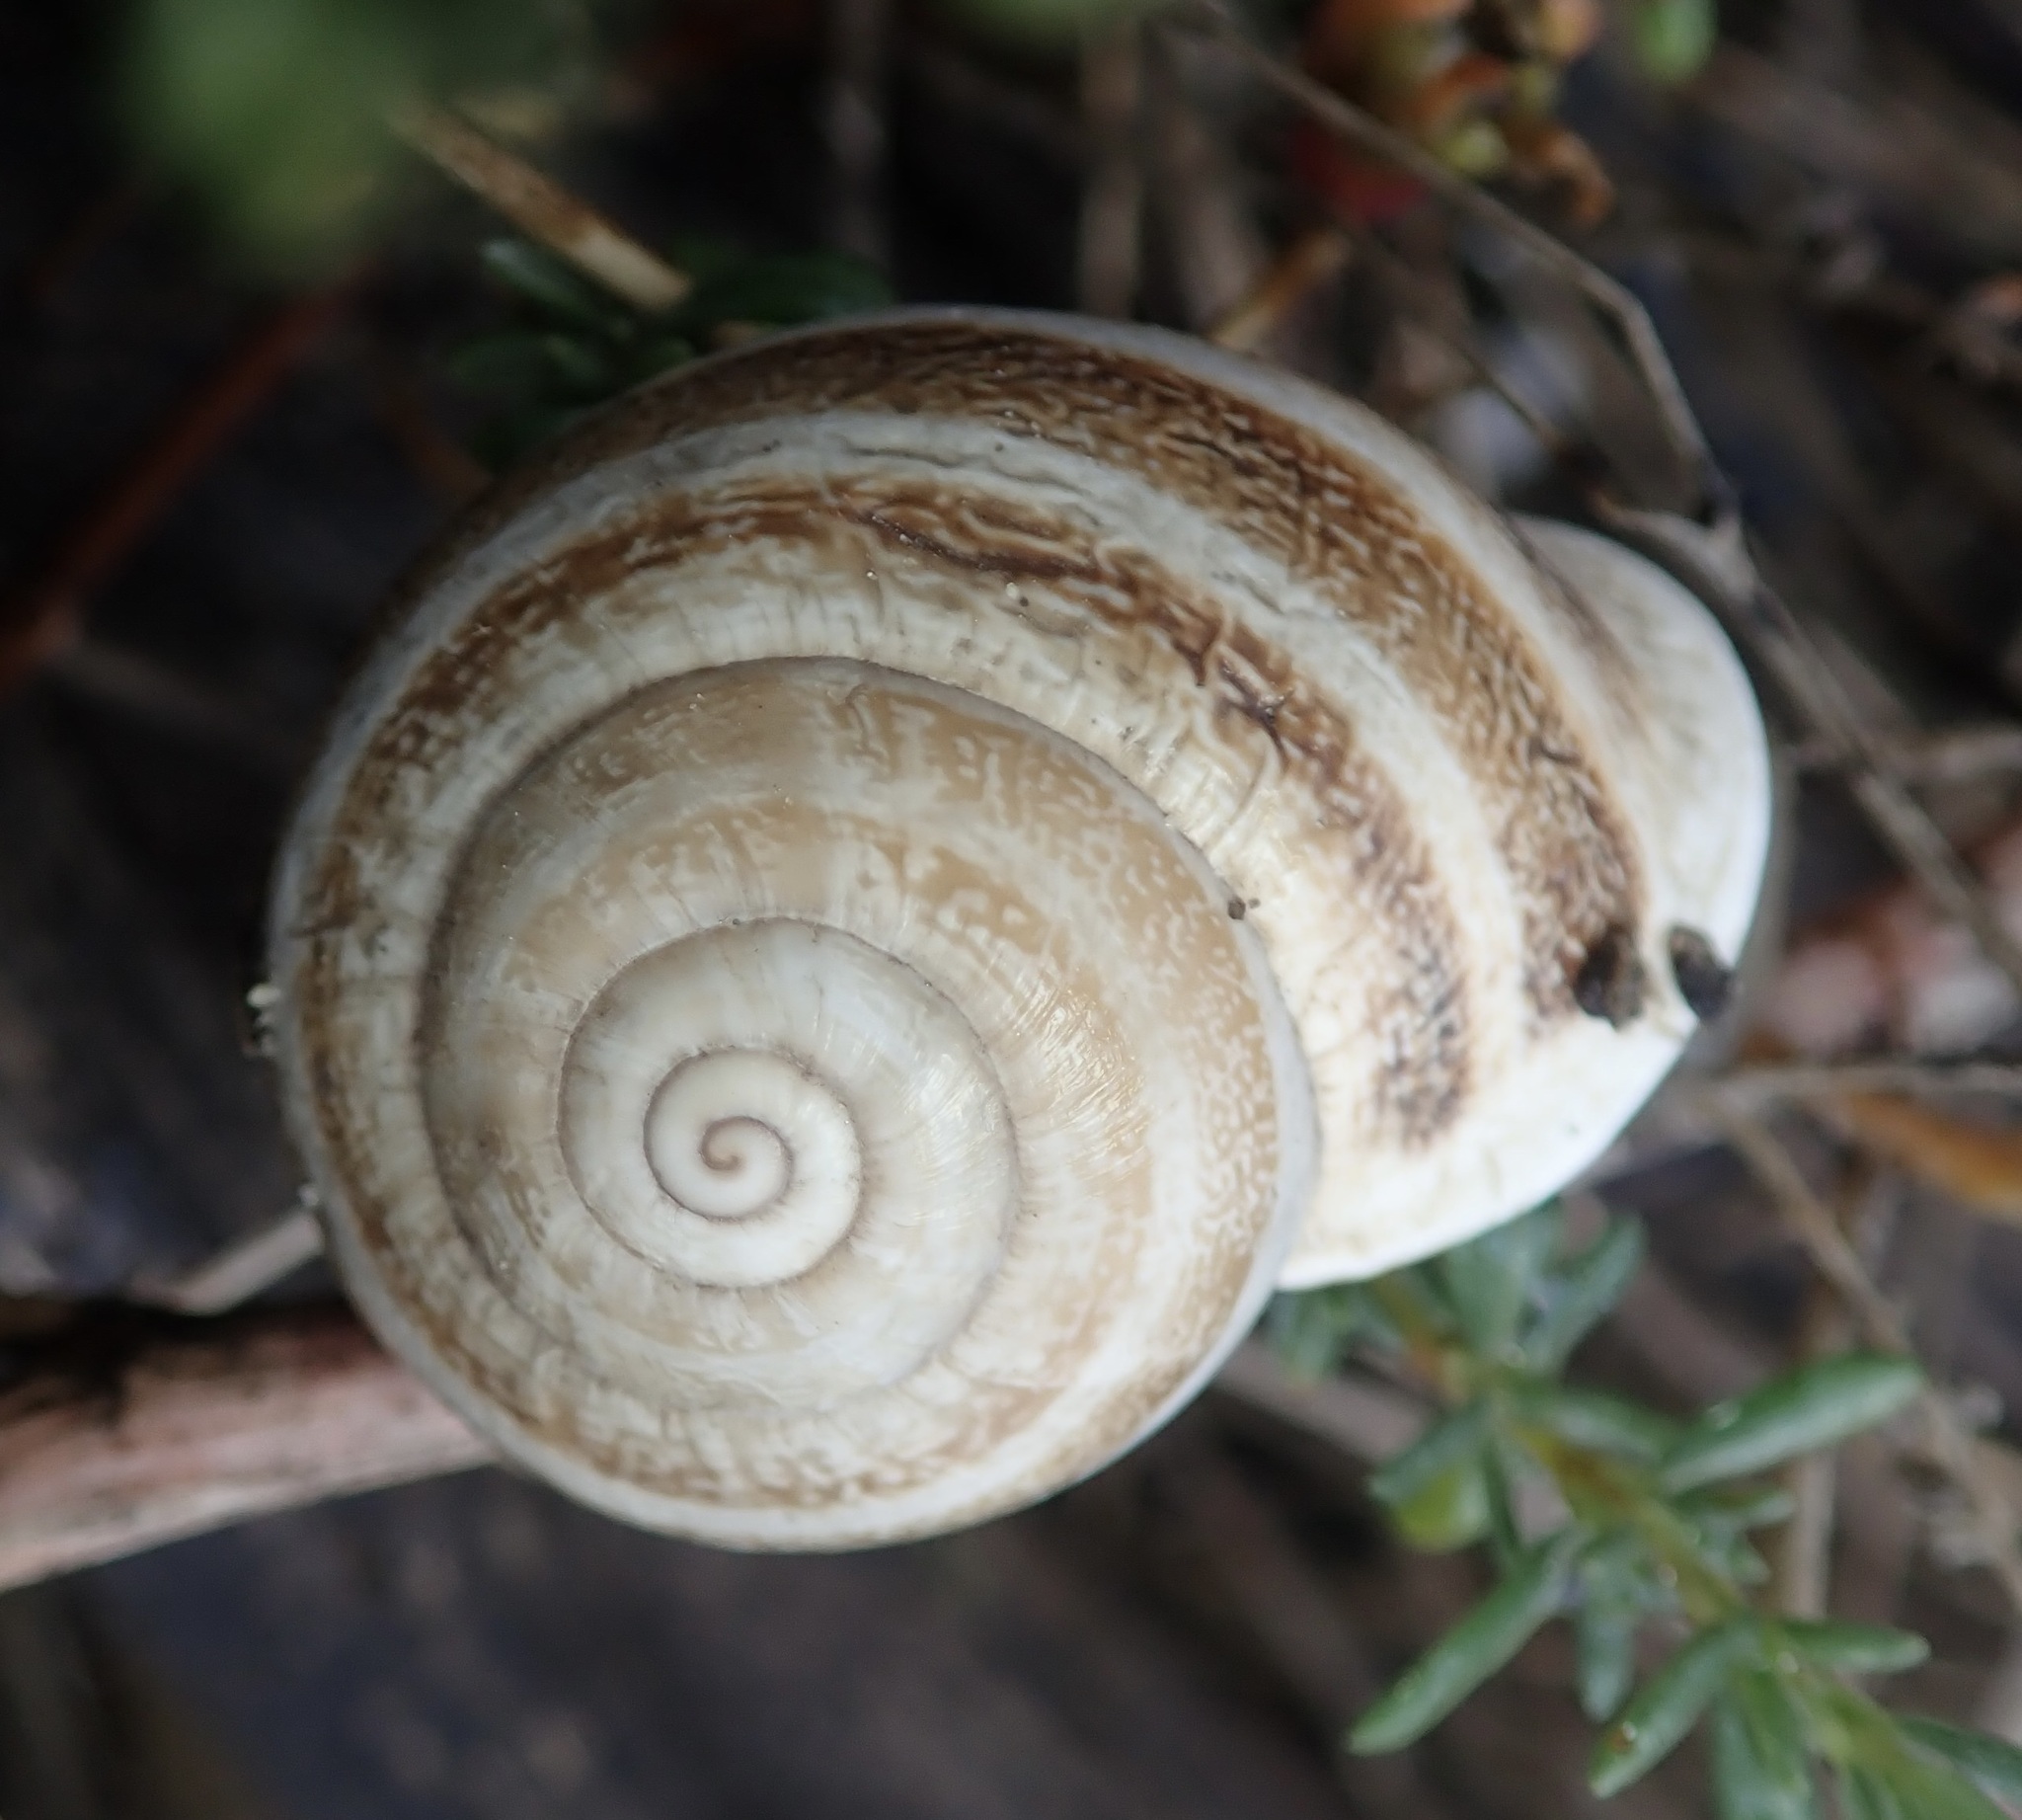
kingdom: Animalia
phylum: Mollusca
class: Gastropoda
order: Stylommatophora
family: Helicidae
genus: Otala
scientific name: Otala lactea
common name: Milk snail
